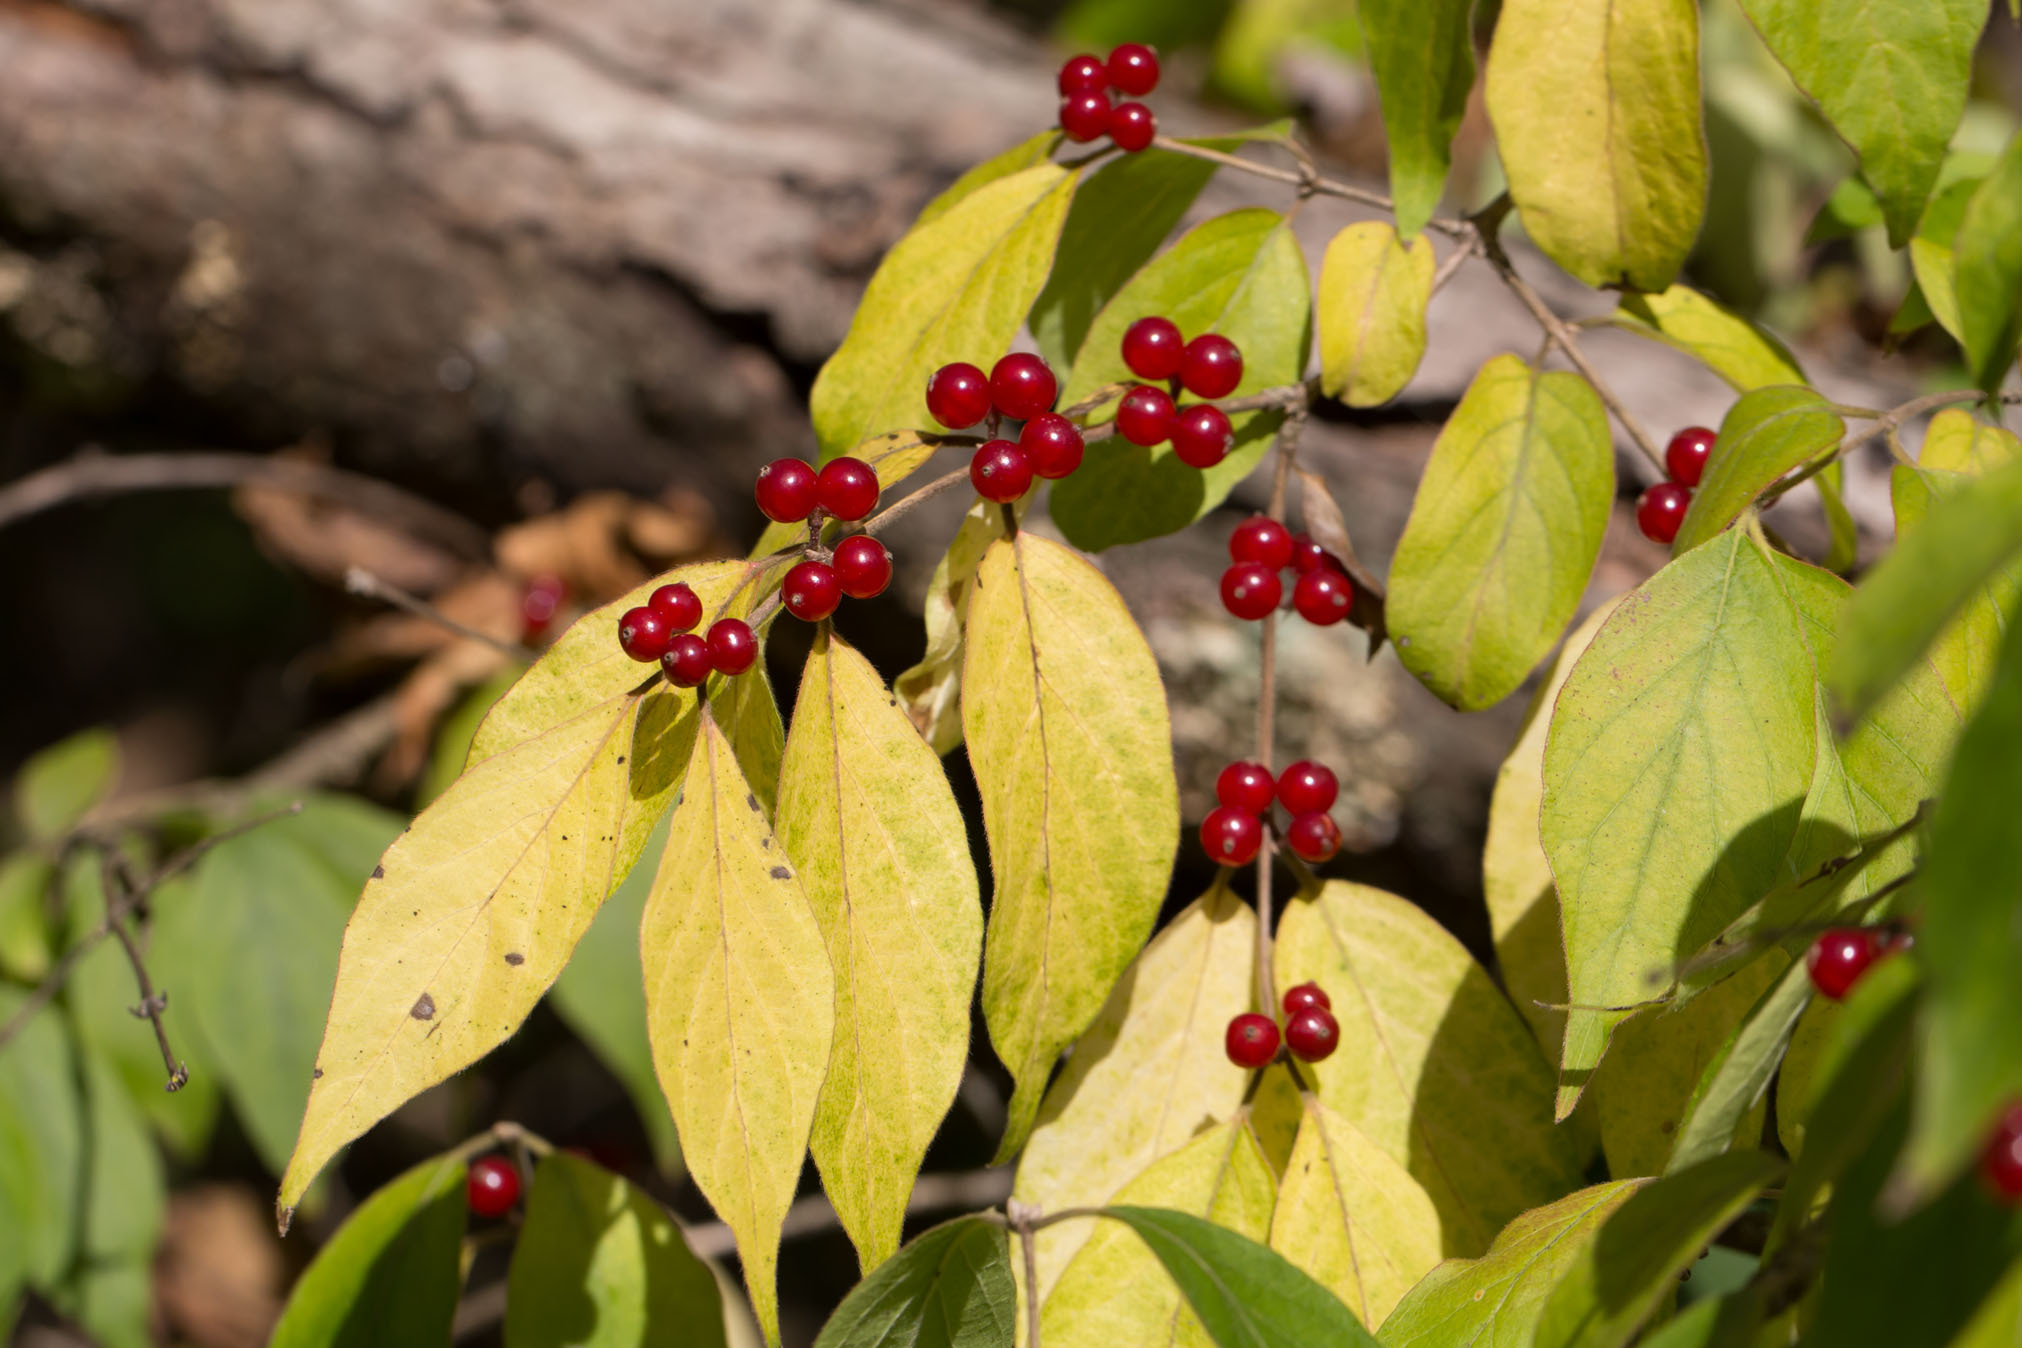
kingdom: Plantae
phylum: Tracheophyta
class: Magnoliopsida
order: Dipsacales
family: Caprifoliaceae
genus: Lonicera
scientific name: Lonicera maackii
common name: Amur honeysuckle
